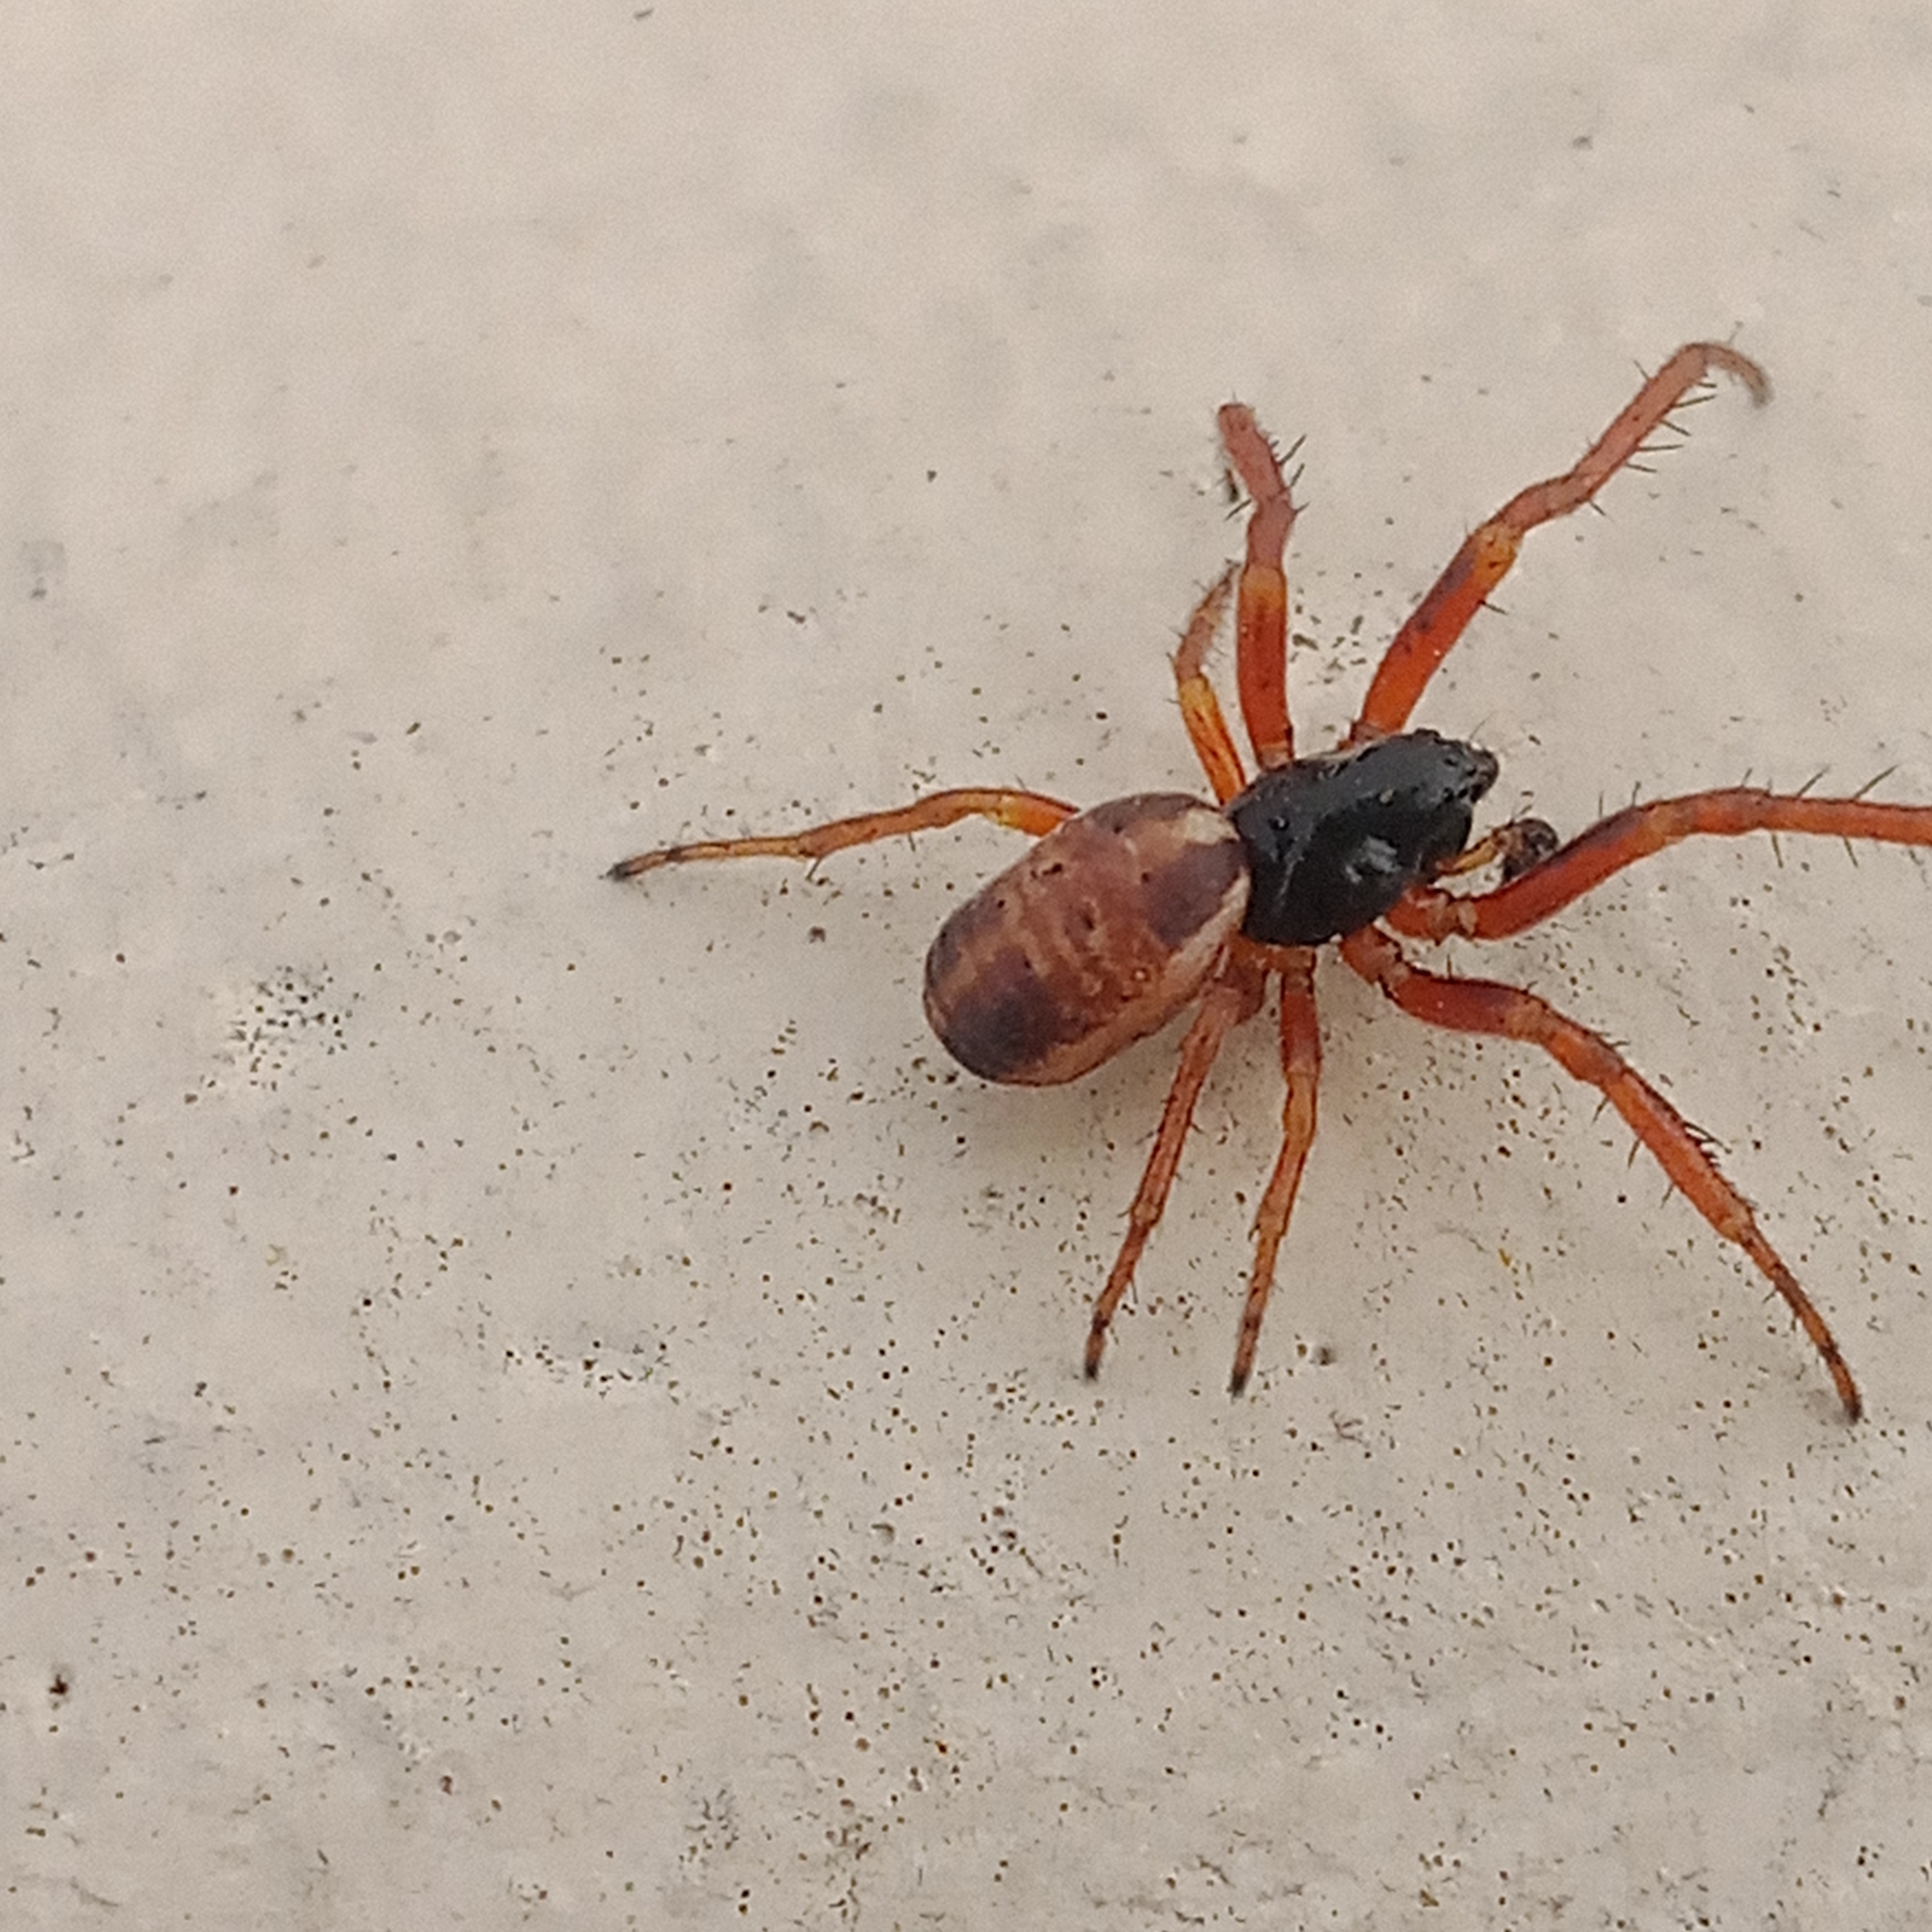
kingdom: Animalia
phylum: Arthropoda
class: Arachnida
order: Araneae
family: Araneidae
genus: Singa
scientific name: Singa nitidula
